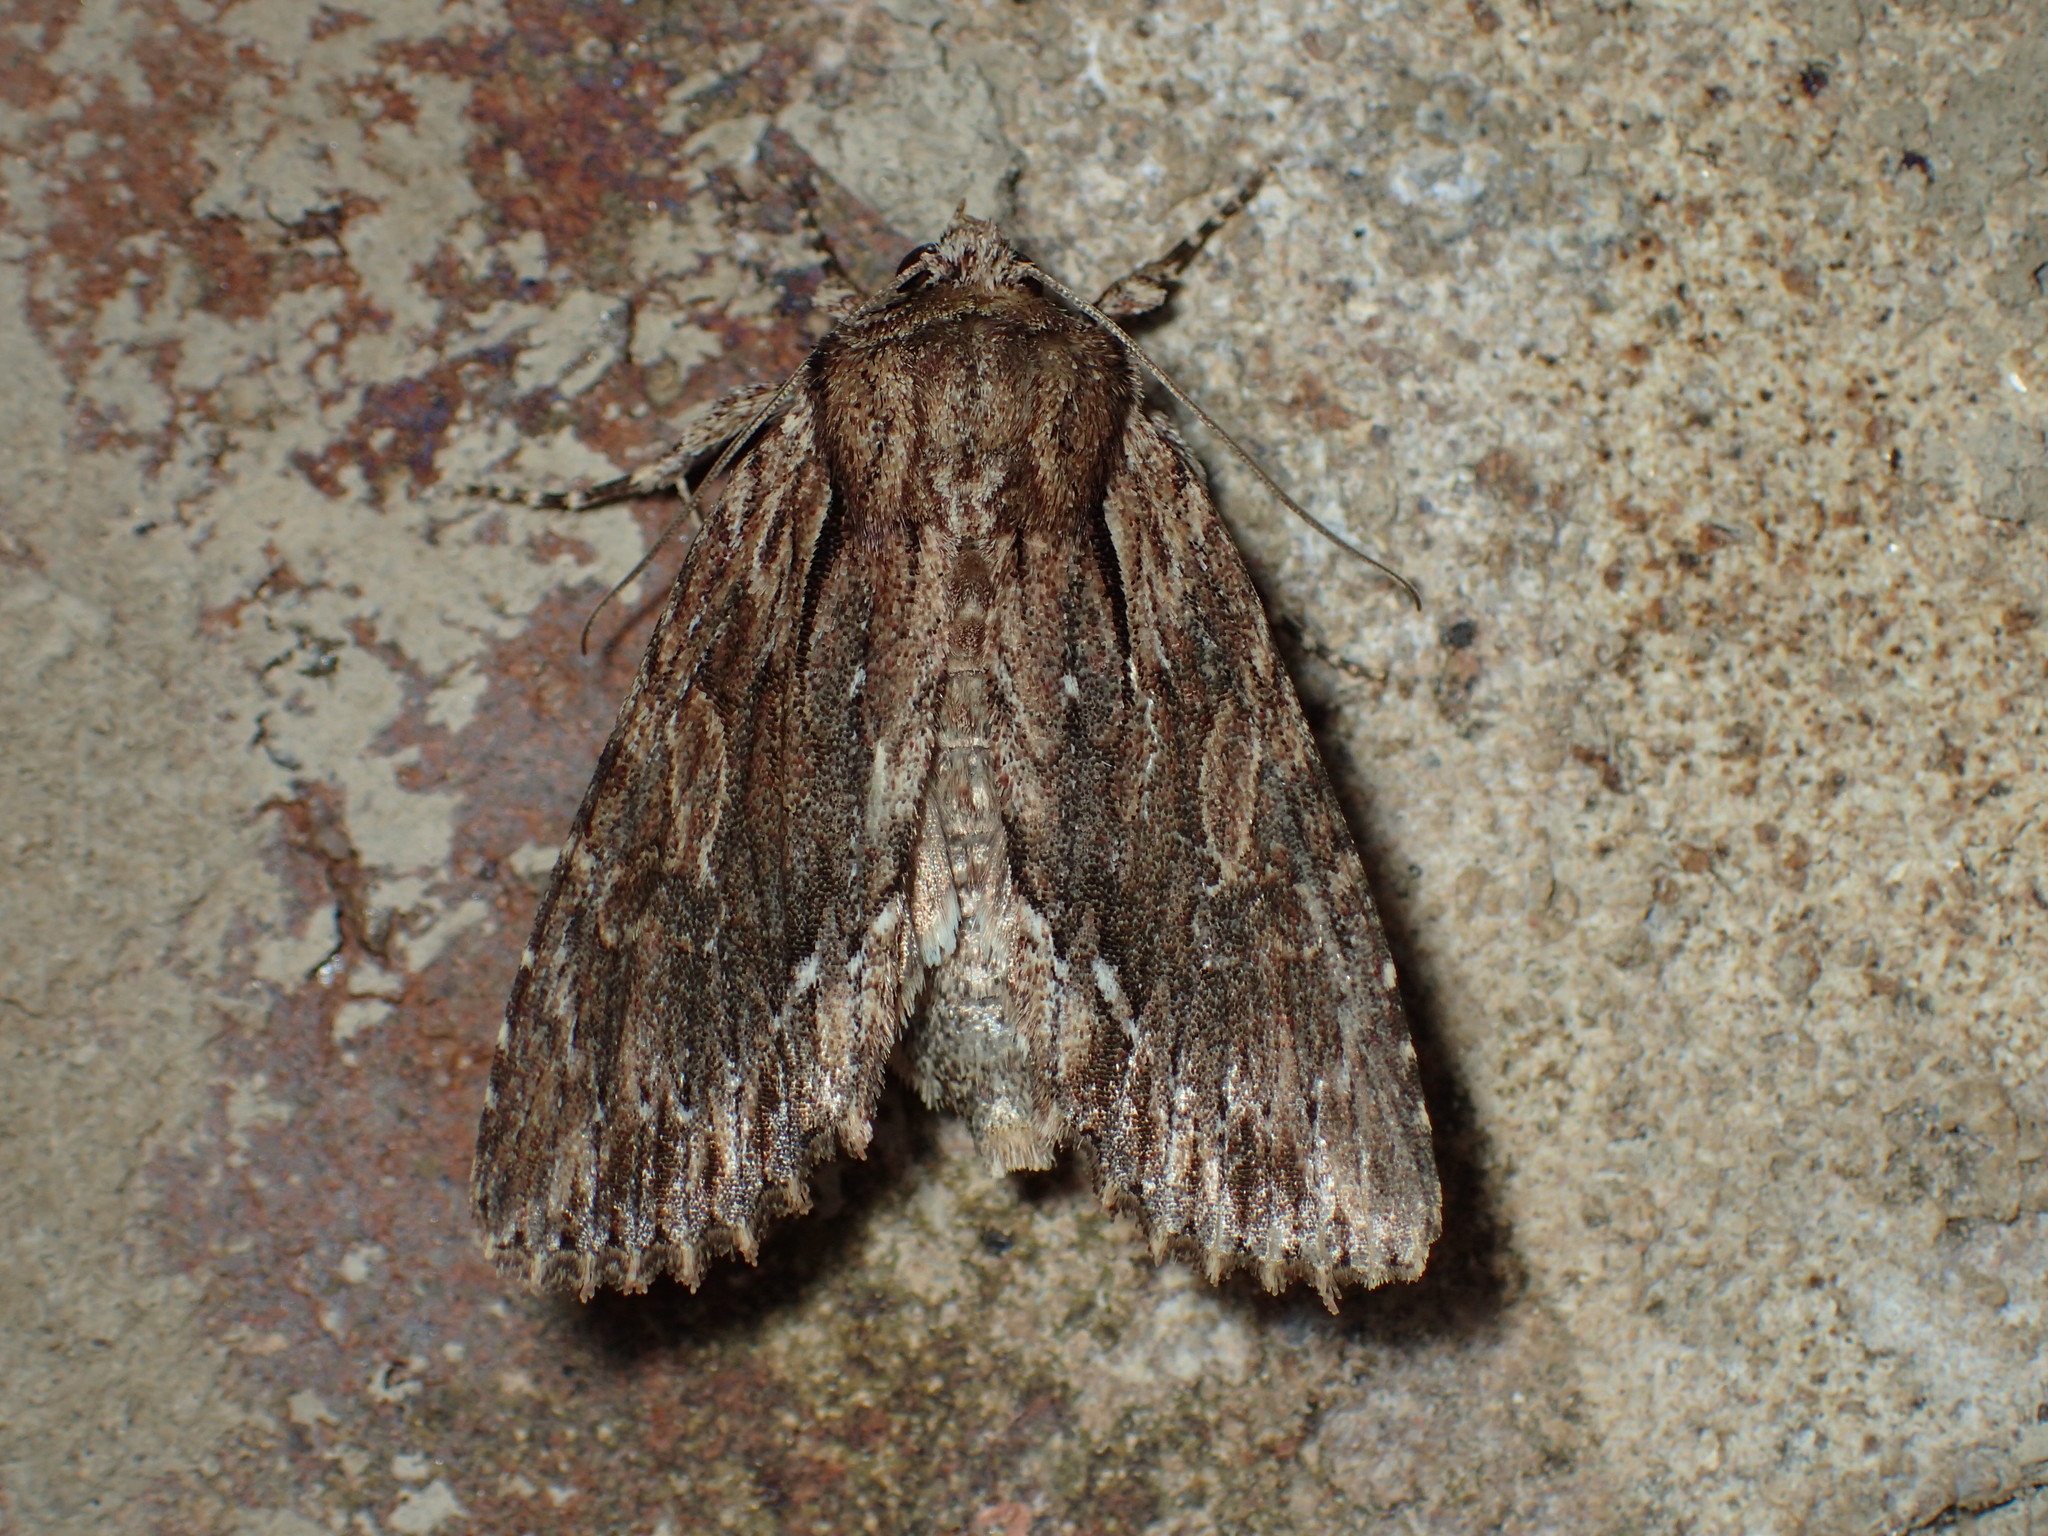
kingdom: Animalia
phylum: Arthropoda
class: Insecta
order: Lepidoptera
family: Noctuidae
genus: Achatia
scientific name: Achatia confusa
